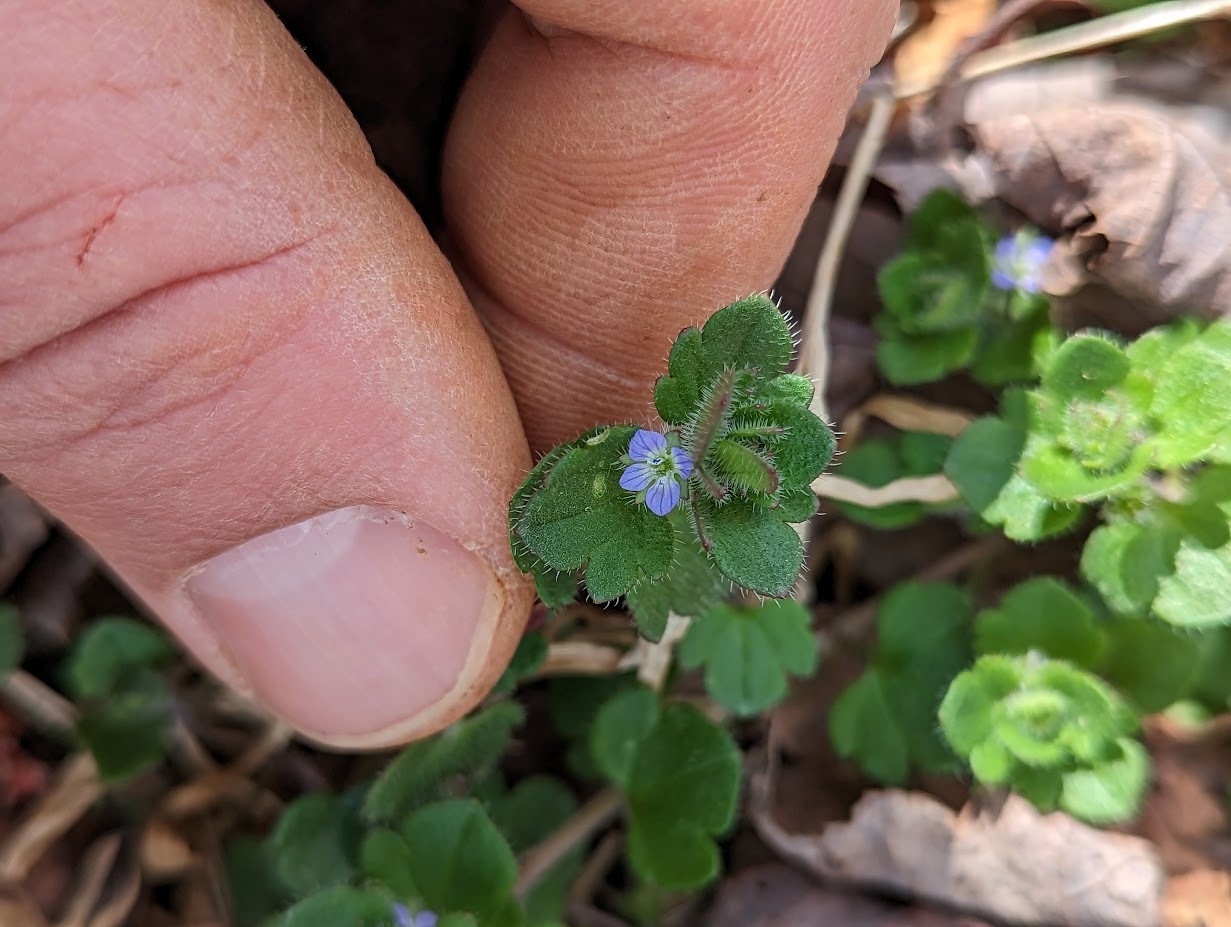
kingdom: Plantae
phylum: Tracheophyta
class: Magnoliopsida
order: Lamiales
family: Plantaginaceae
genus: Veronica
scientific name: Veronica hederifolia
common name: Ivy-leaved speedwell
